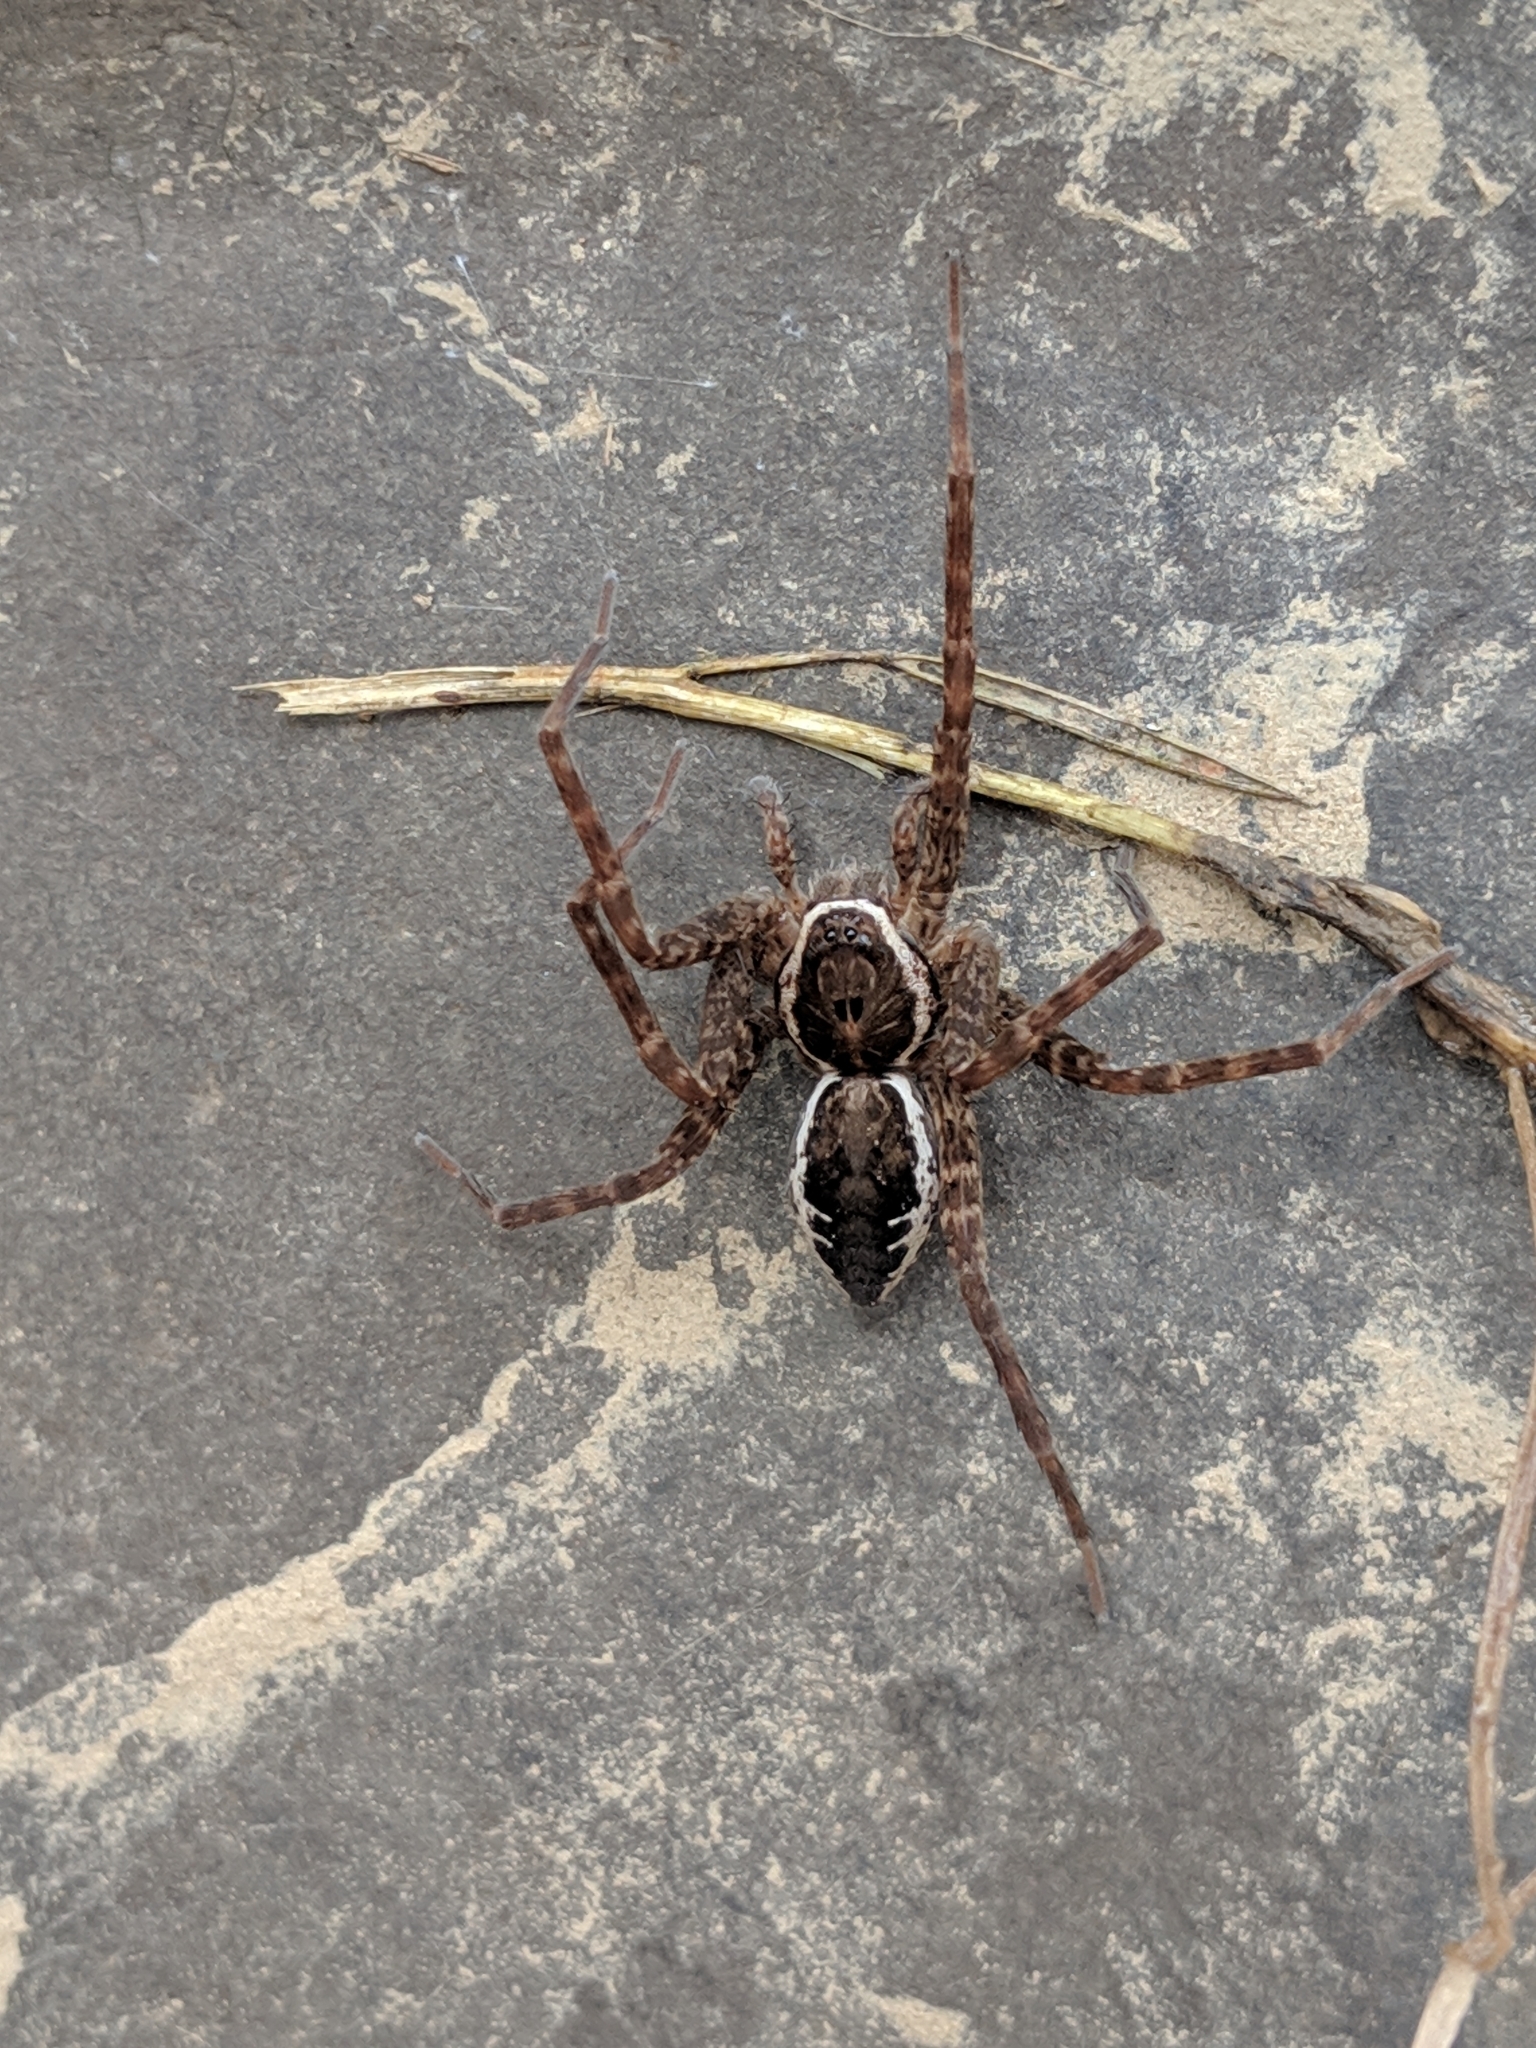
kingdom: Animalia
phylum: Arthropoda
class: Arachnida
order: Araneae
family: Pisauridae
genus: Dolomedes
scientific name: Dolomedes vittatus
